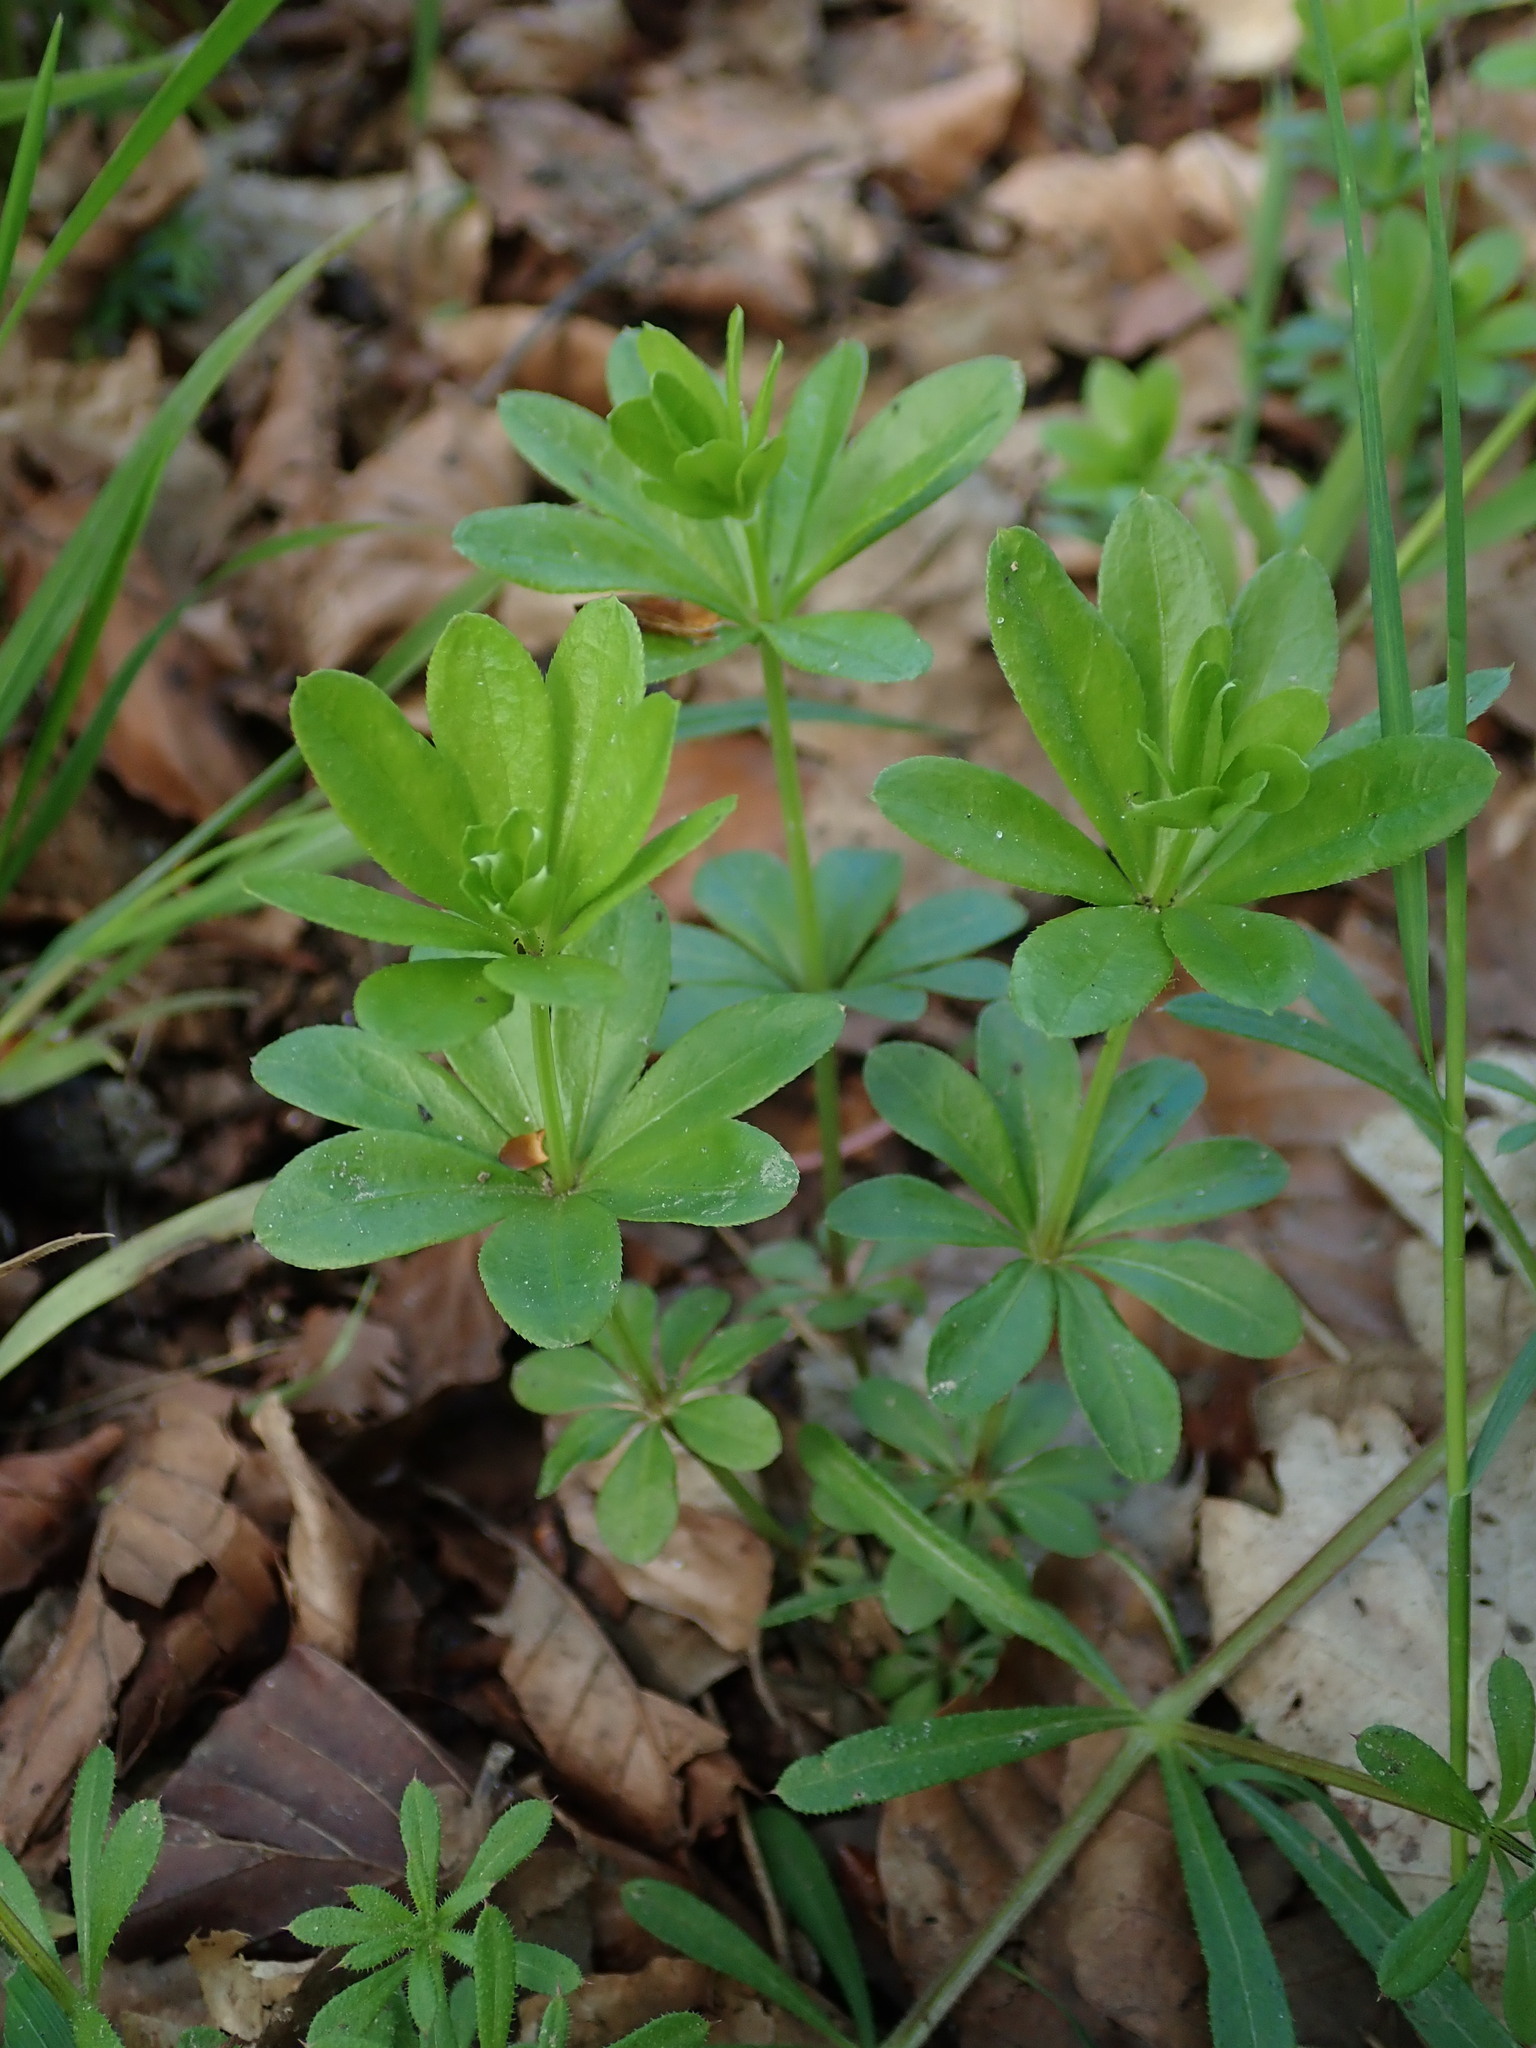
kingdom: Plantae
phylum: Tracheophyta
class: Magnoliopsida
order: Gentianales
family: Rubiaceae
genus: Galium
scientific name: Galium odoratum
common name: Sweet woodruff
